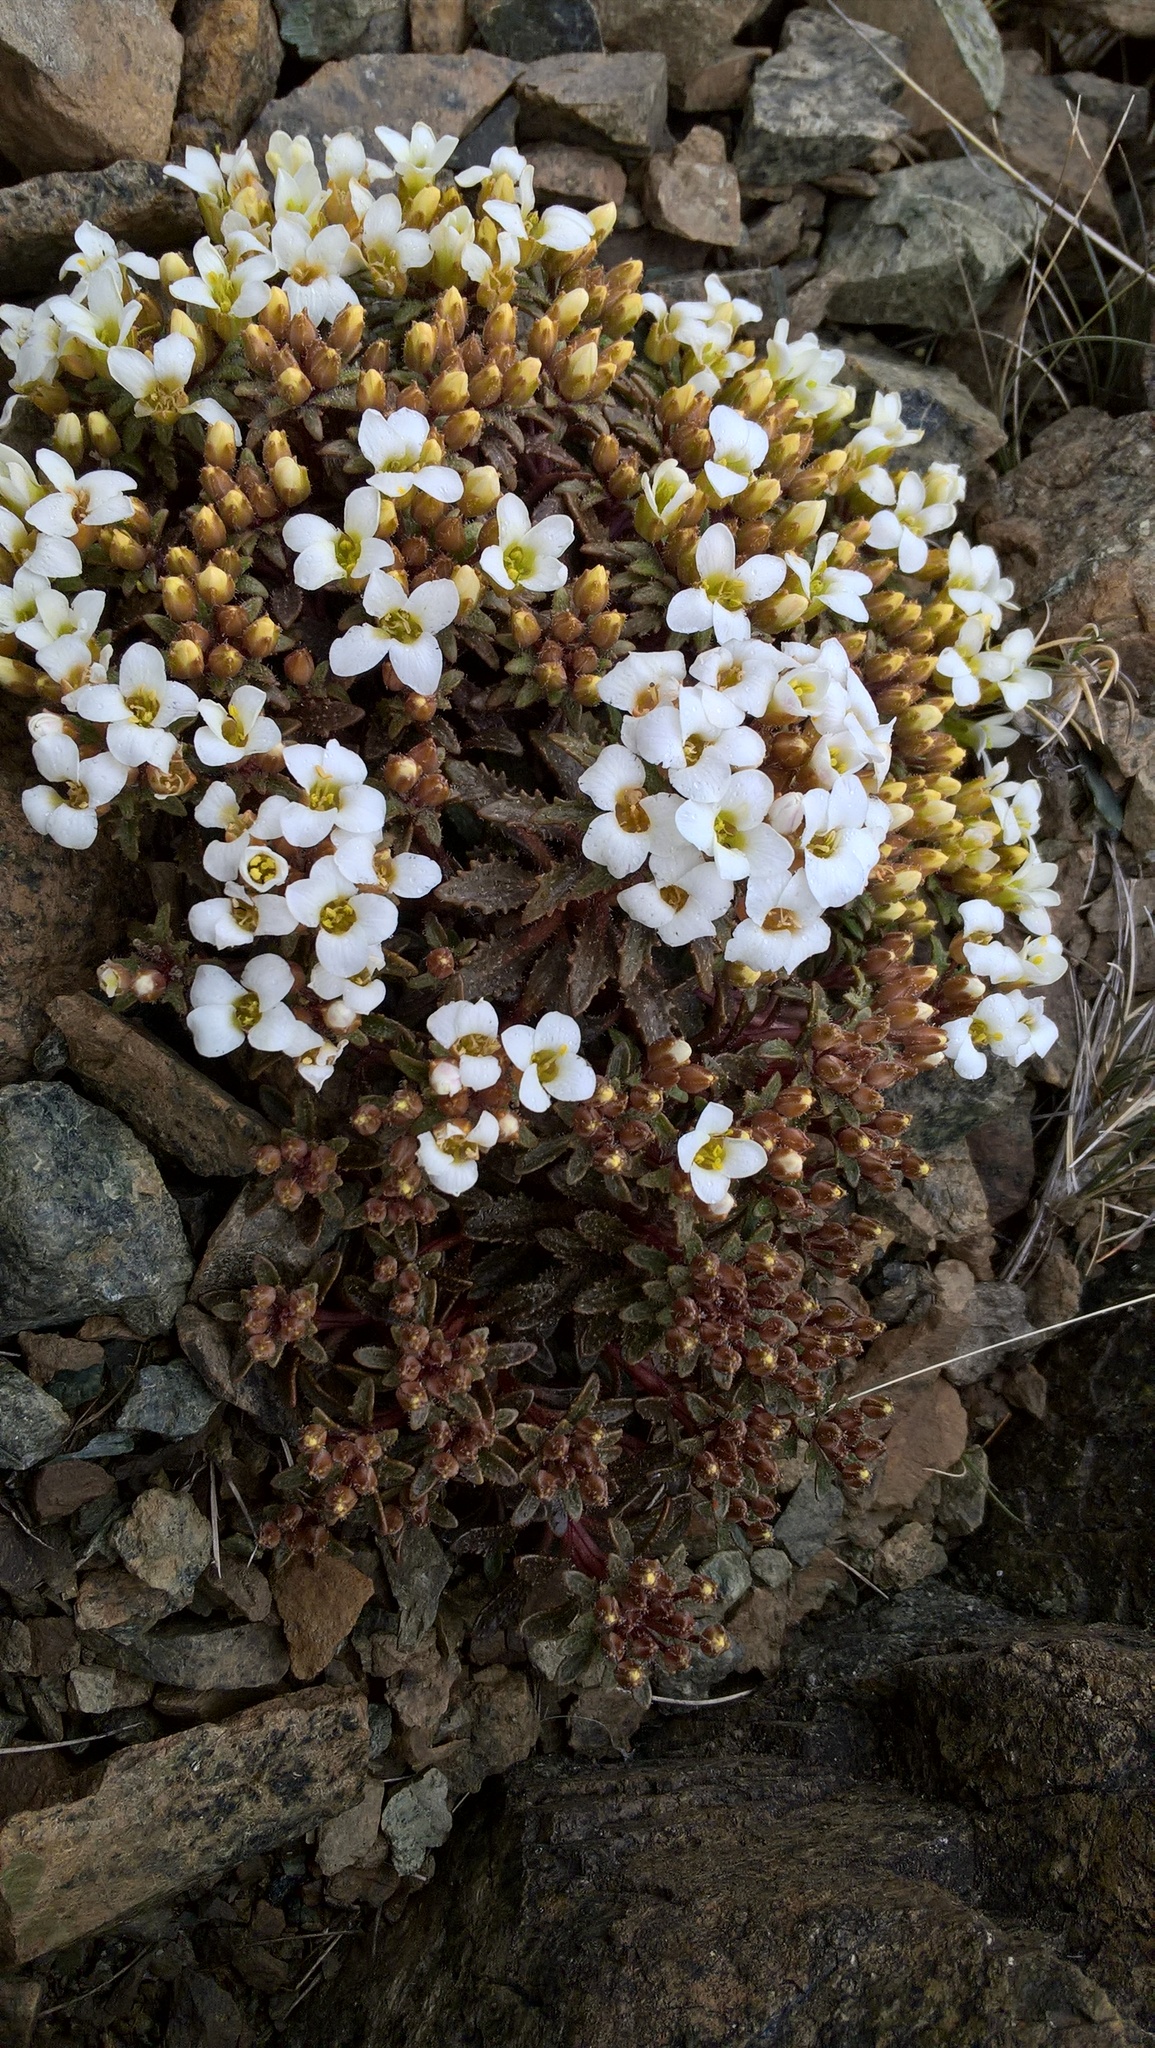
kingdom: Plantae
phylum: Tracheophyta
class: Magnoliopsida
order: Brassicales
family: Brassicaceae
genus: Notothlaspi
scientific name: Notothlaspi australe
